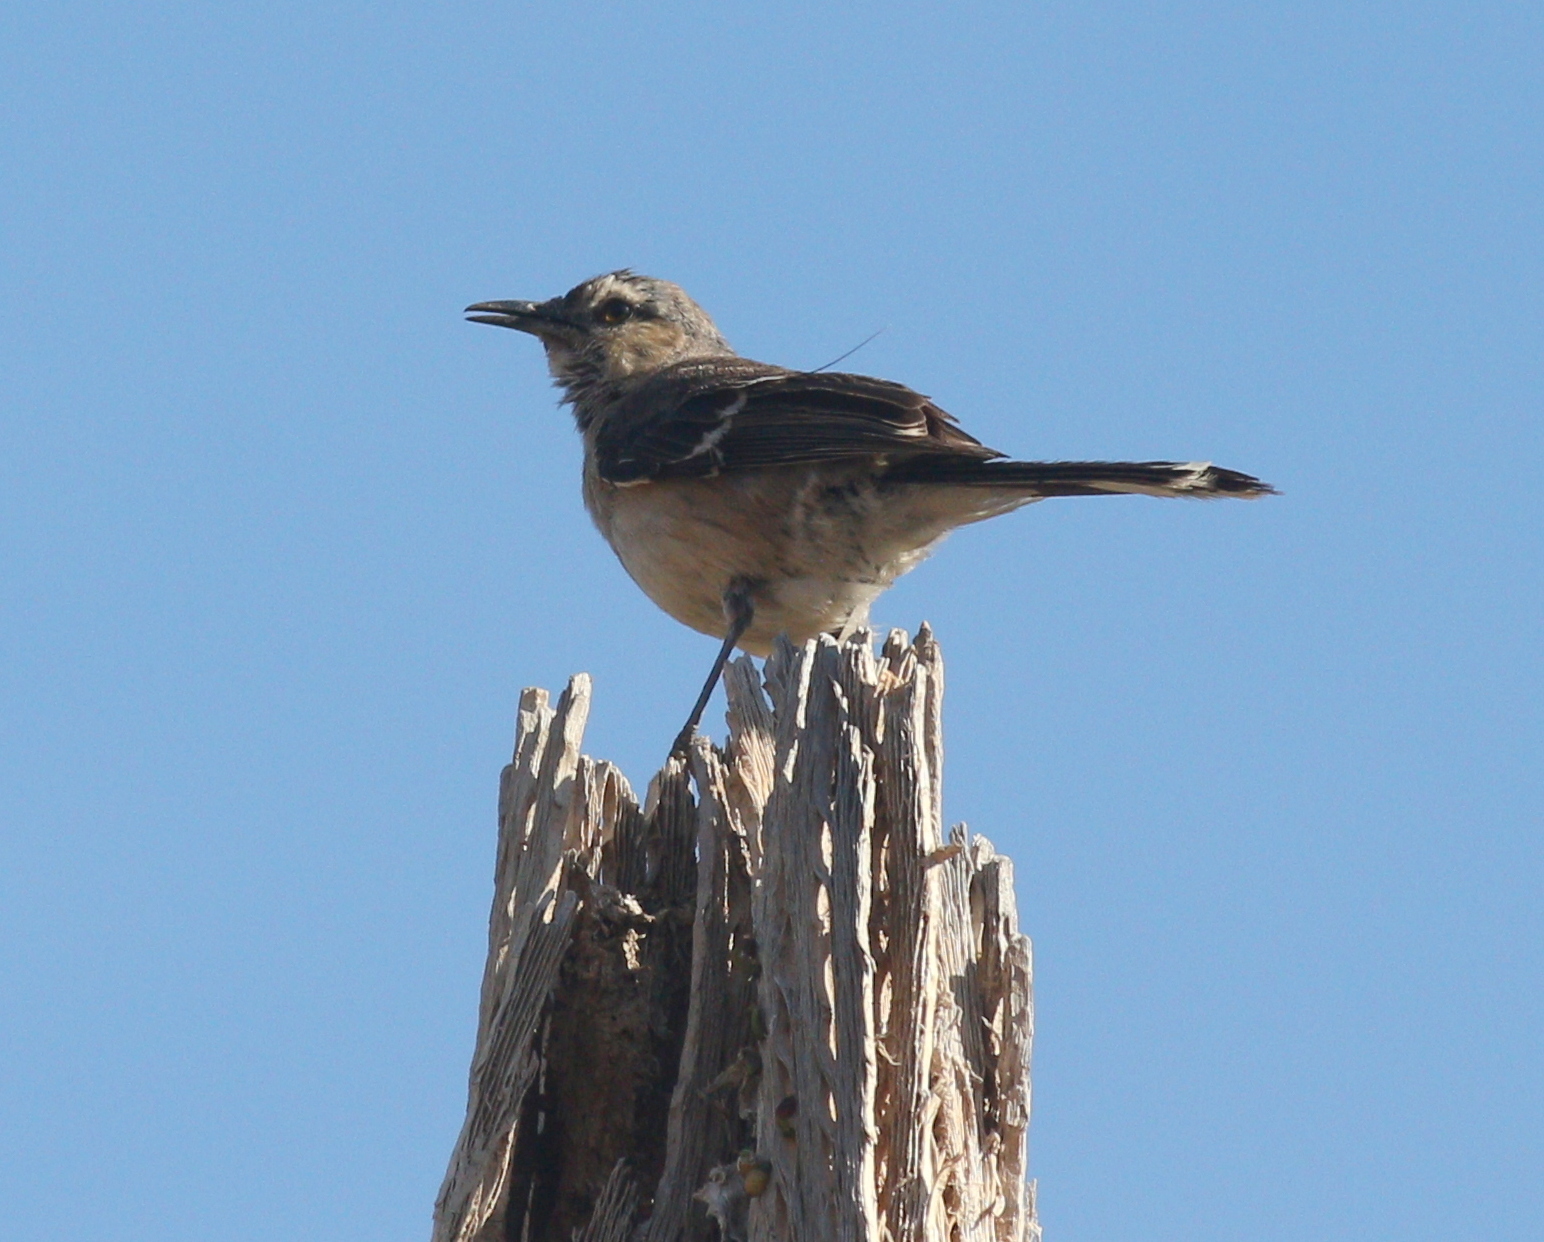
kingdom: Animalia
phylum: Chordata
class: Aves
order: Passeriformes
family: Mimidae
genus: Mimus
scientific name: Mimus patagonicus
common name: Patagonian mockingbird
